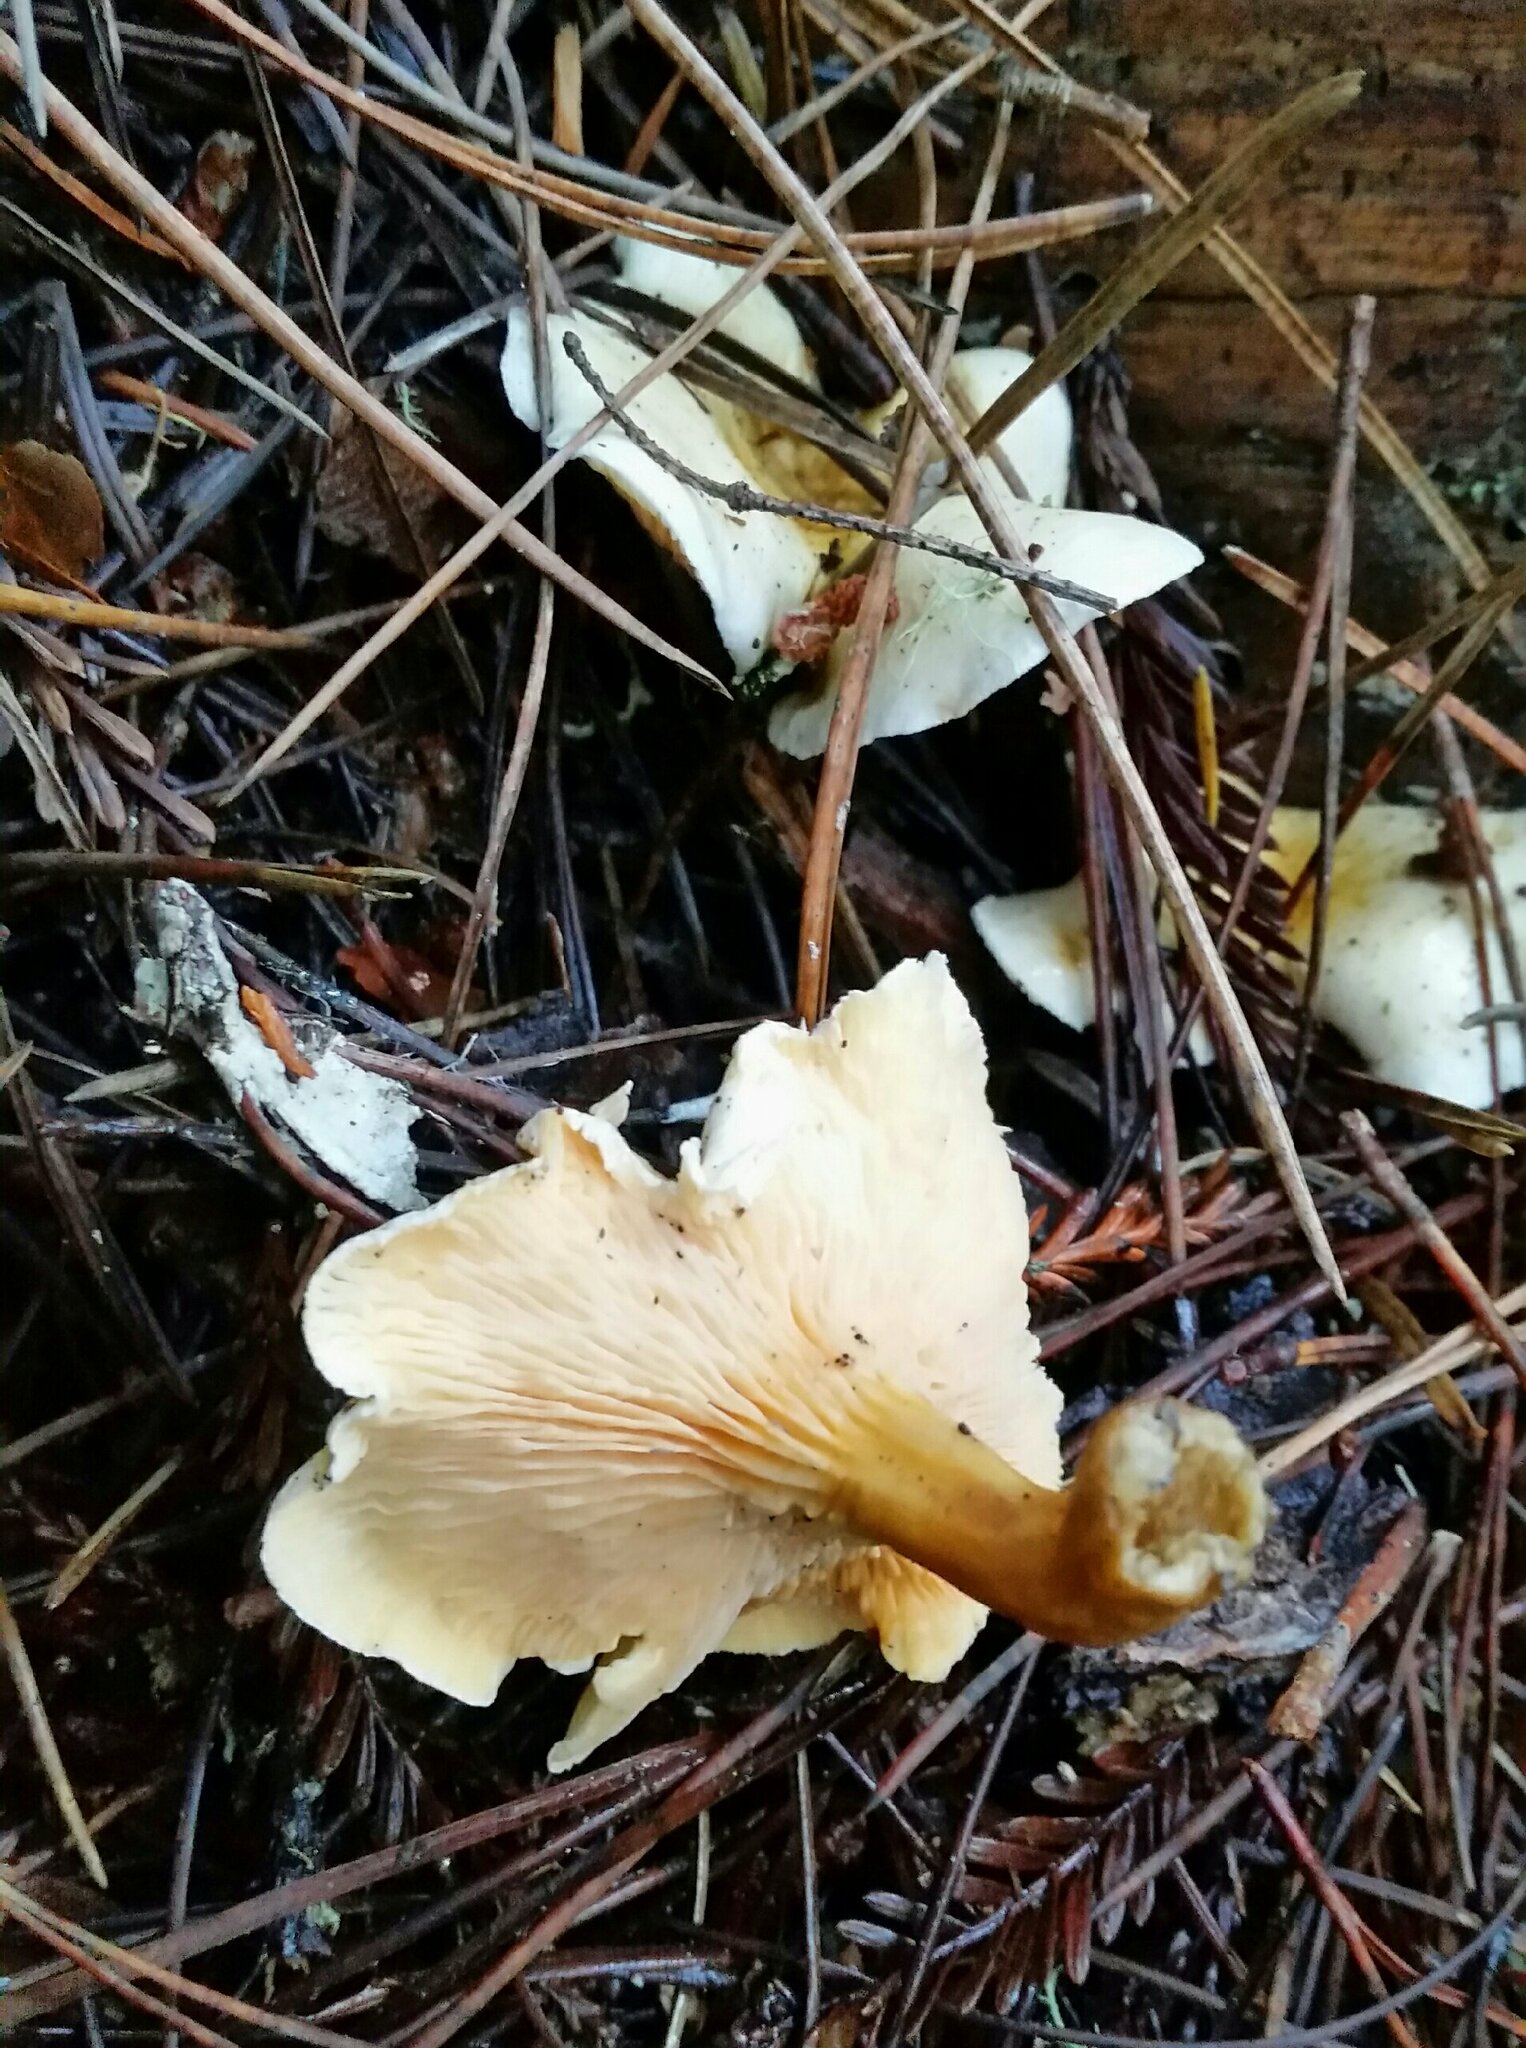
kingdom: Fungi
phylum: Basidiomycota
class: Agaricomycetes
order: Boletales
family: Hygrophoropsidaceae
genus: Hygrophoropsis
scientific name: Hygrophoropsis aurantiaca
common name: False chanterelle
